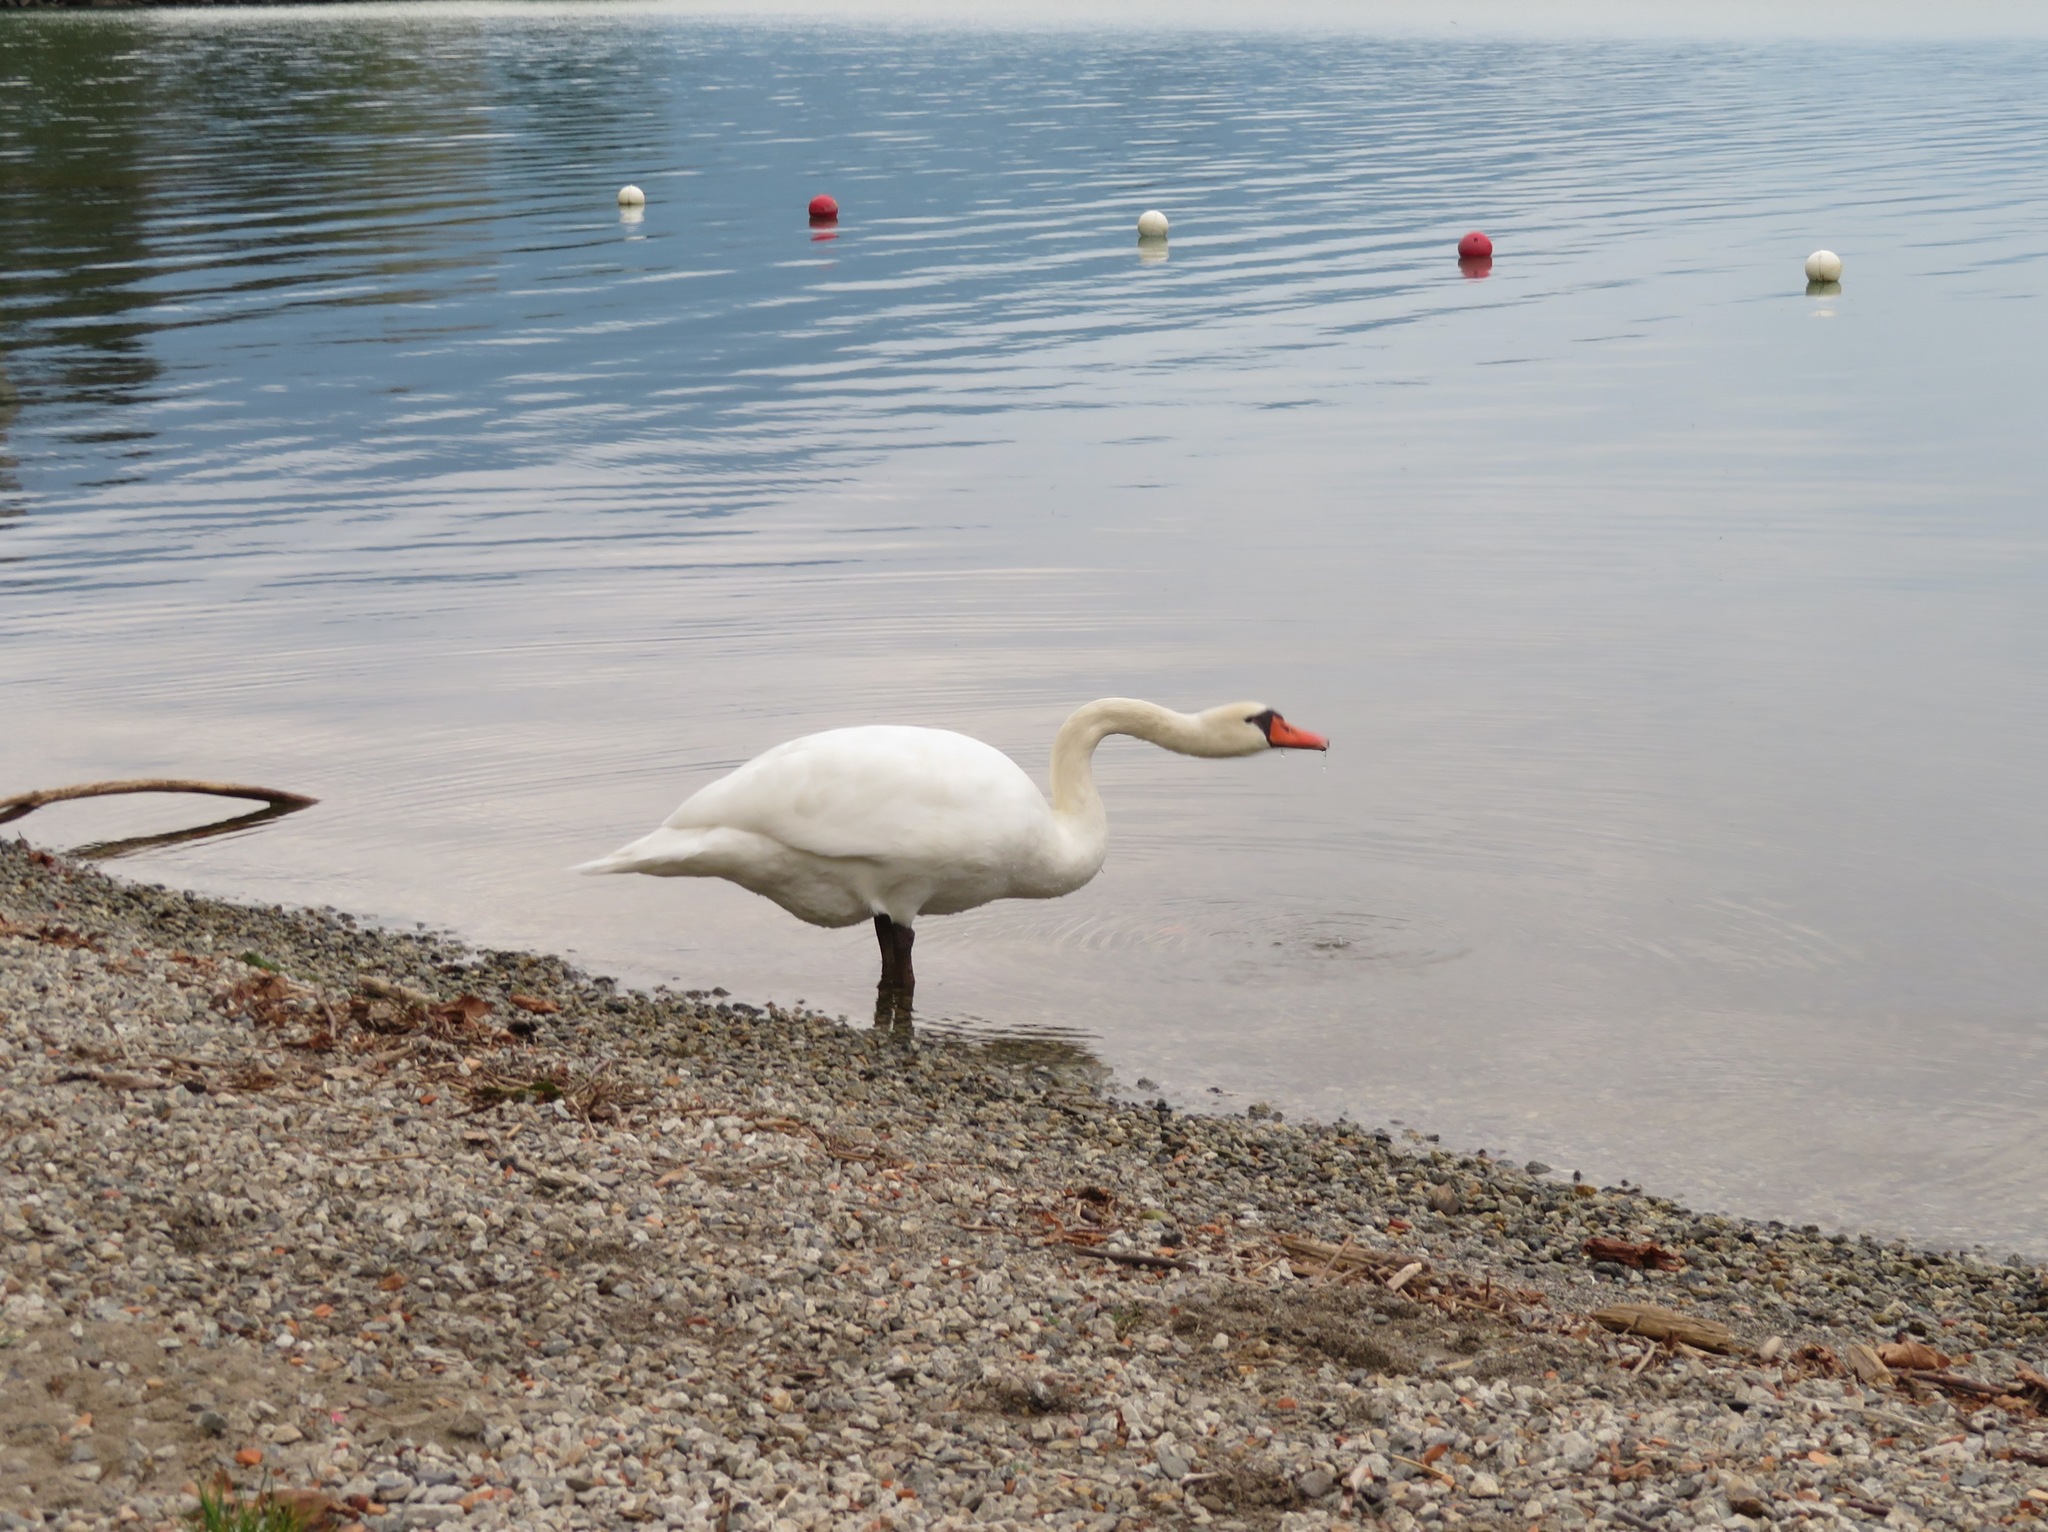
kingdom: Animalia
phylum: Chordata
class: Aves
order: Anseriformes
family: Anatidae
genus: Cygnus
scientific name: Cygnus olor
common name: Mute swan
